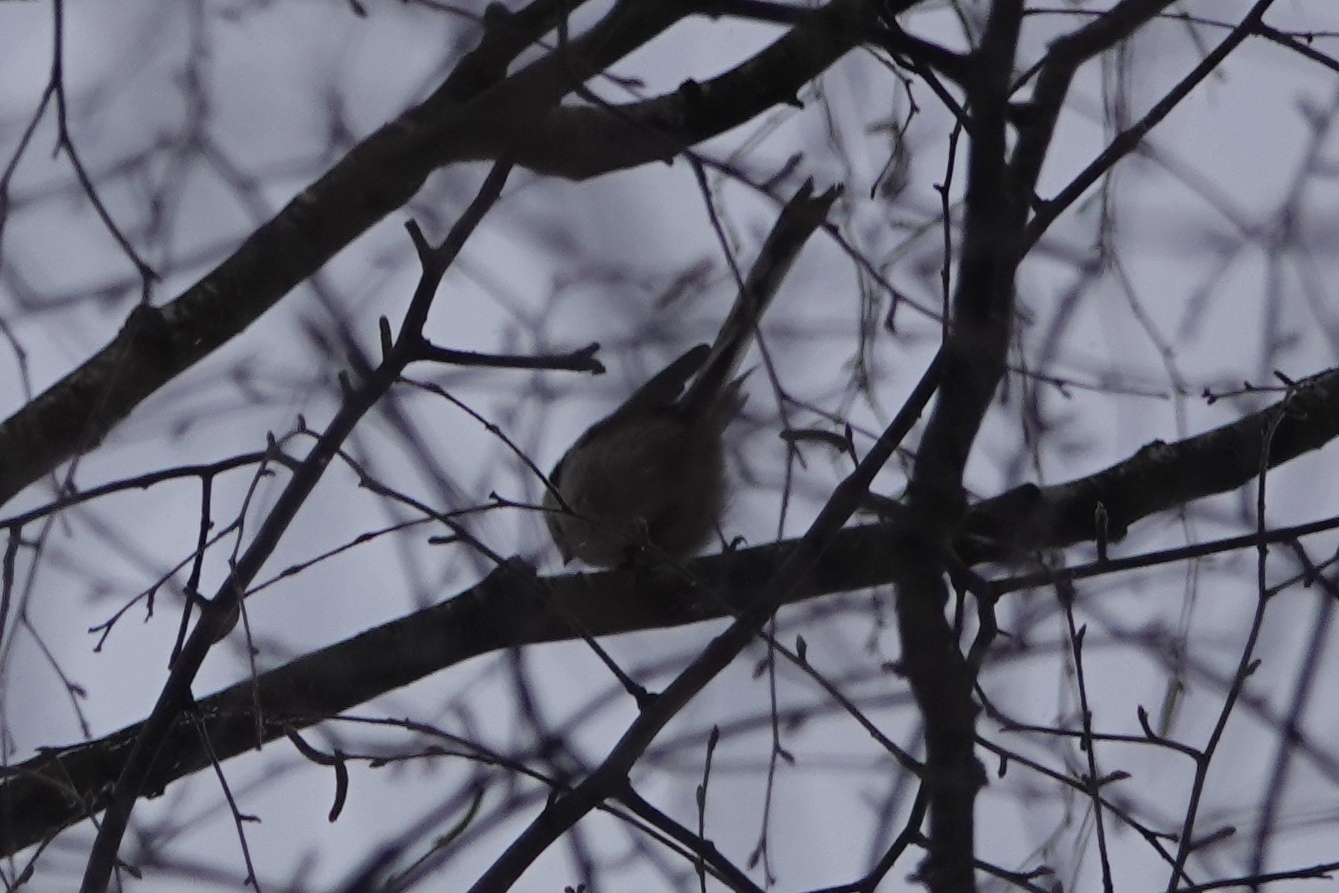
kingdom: Animalia
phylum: Chordata
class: Aves
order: Passeriformes
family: Aegithalidae
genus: Aegithalos
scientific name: Aegithalos caudatus
